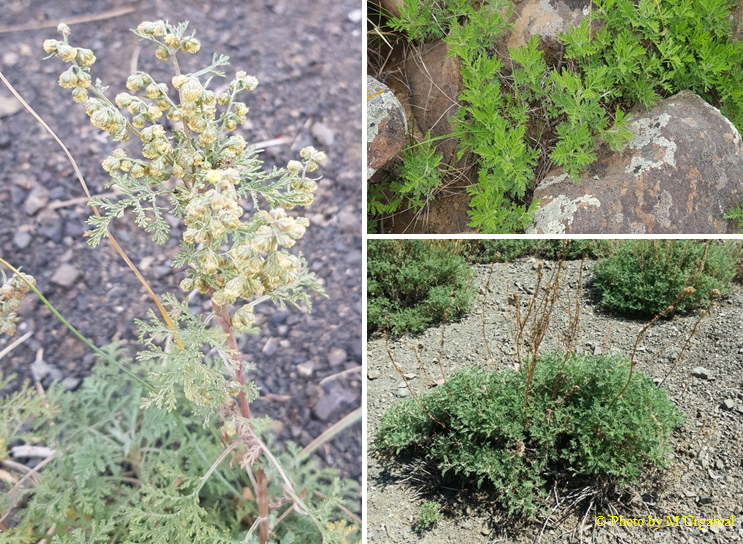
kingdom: Plantae
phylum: Tracheophyta
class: Magnoliopsida
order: Asterales
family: Asteraceae
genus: Artemisia
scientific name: Artemisia
